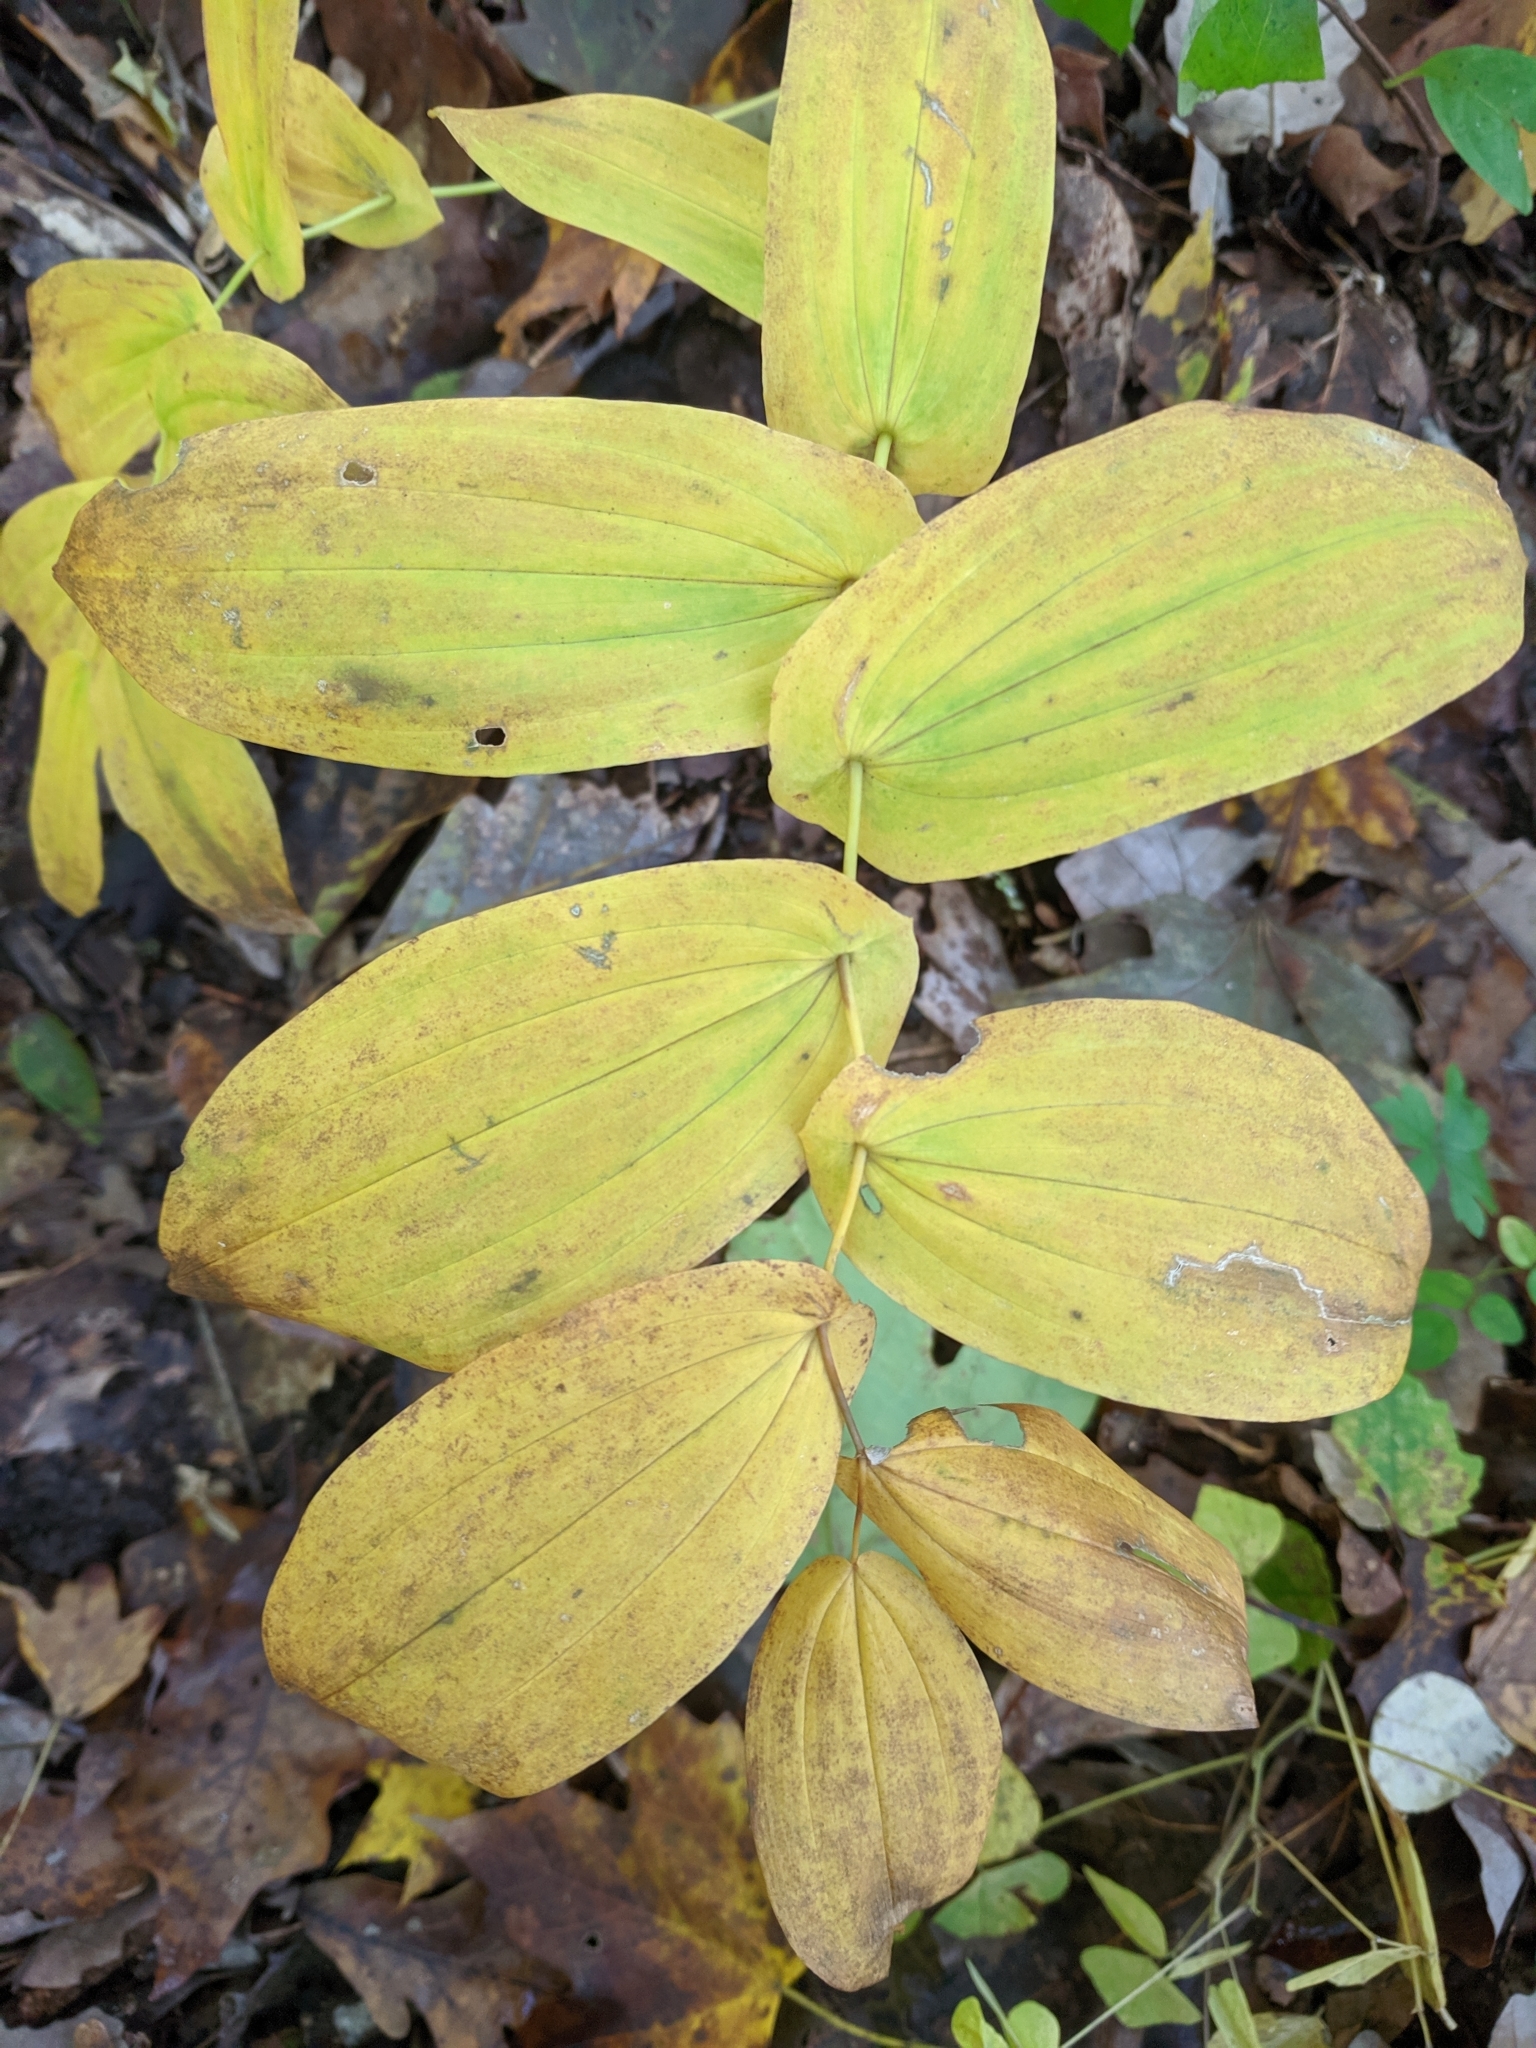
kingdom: Plantae
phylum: Tracheophyta
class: Liliopsida
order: Liliales
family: Colchicaceae
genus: Uvularia
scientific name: Uvularia grandiflora
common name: Bellwort
